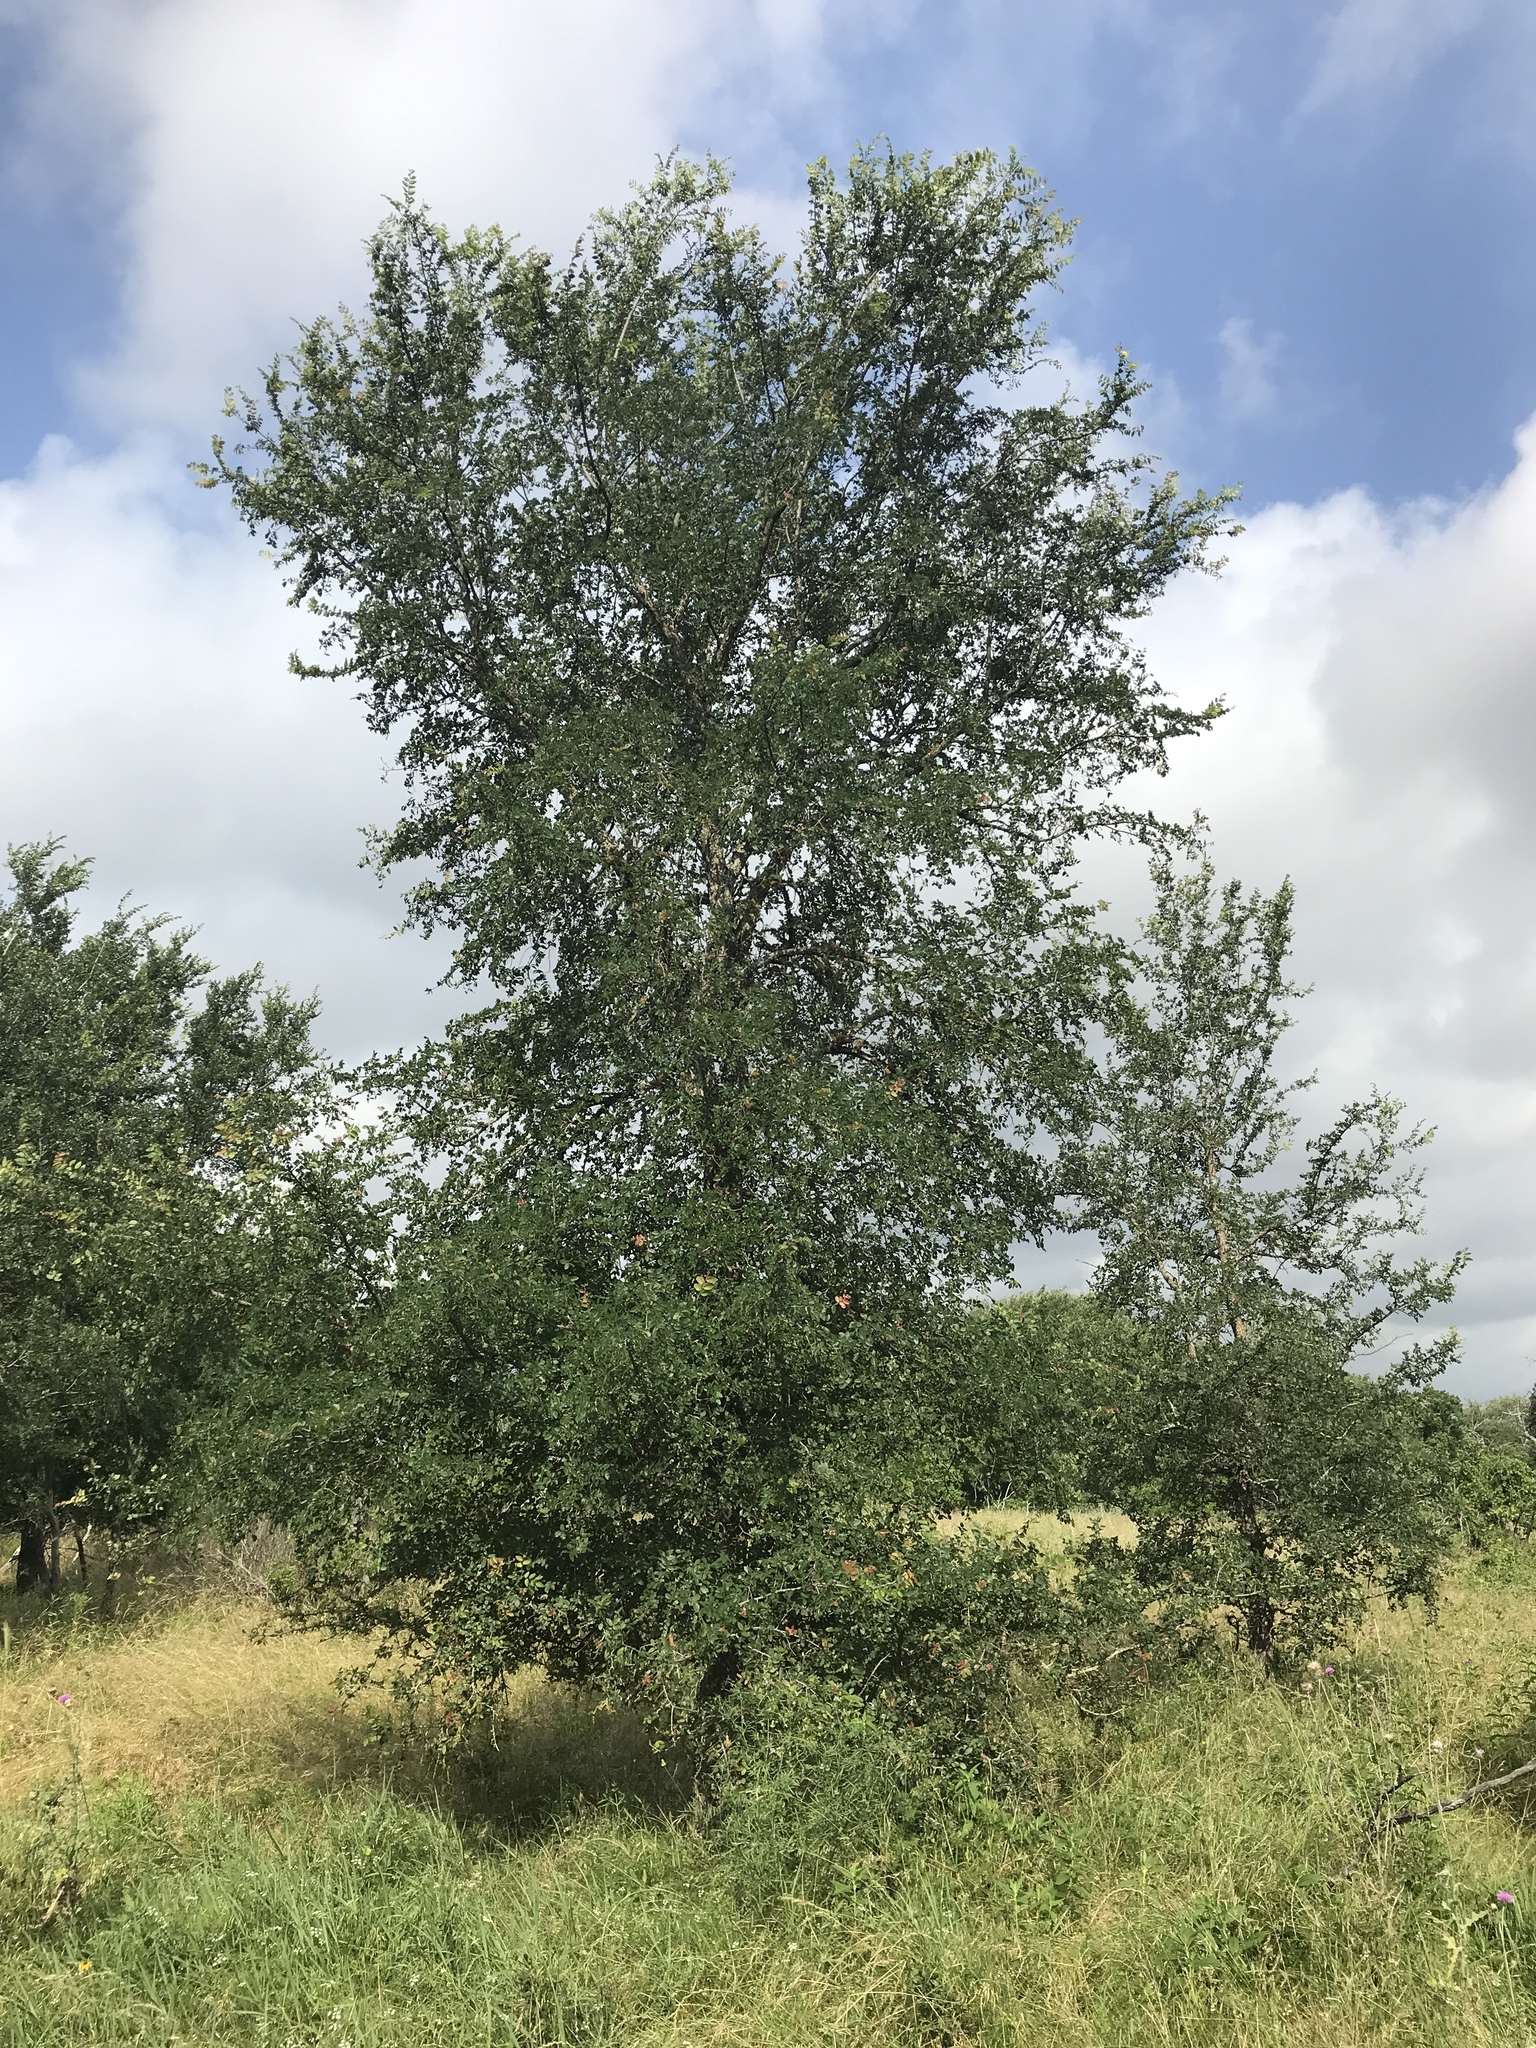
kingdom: Plantae
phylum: Tracheophyta
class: Magnoliopsida
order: Rosales
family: Ulmaceae
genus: Ulmus
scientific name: Ulmus crassifolia
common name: Basket elm
